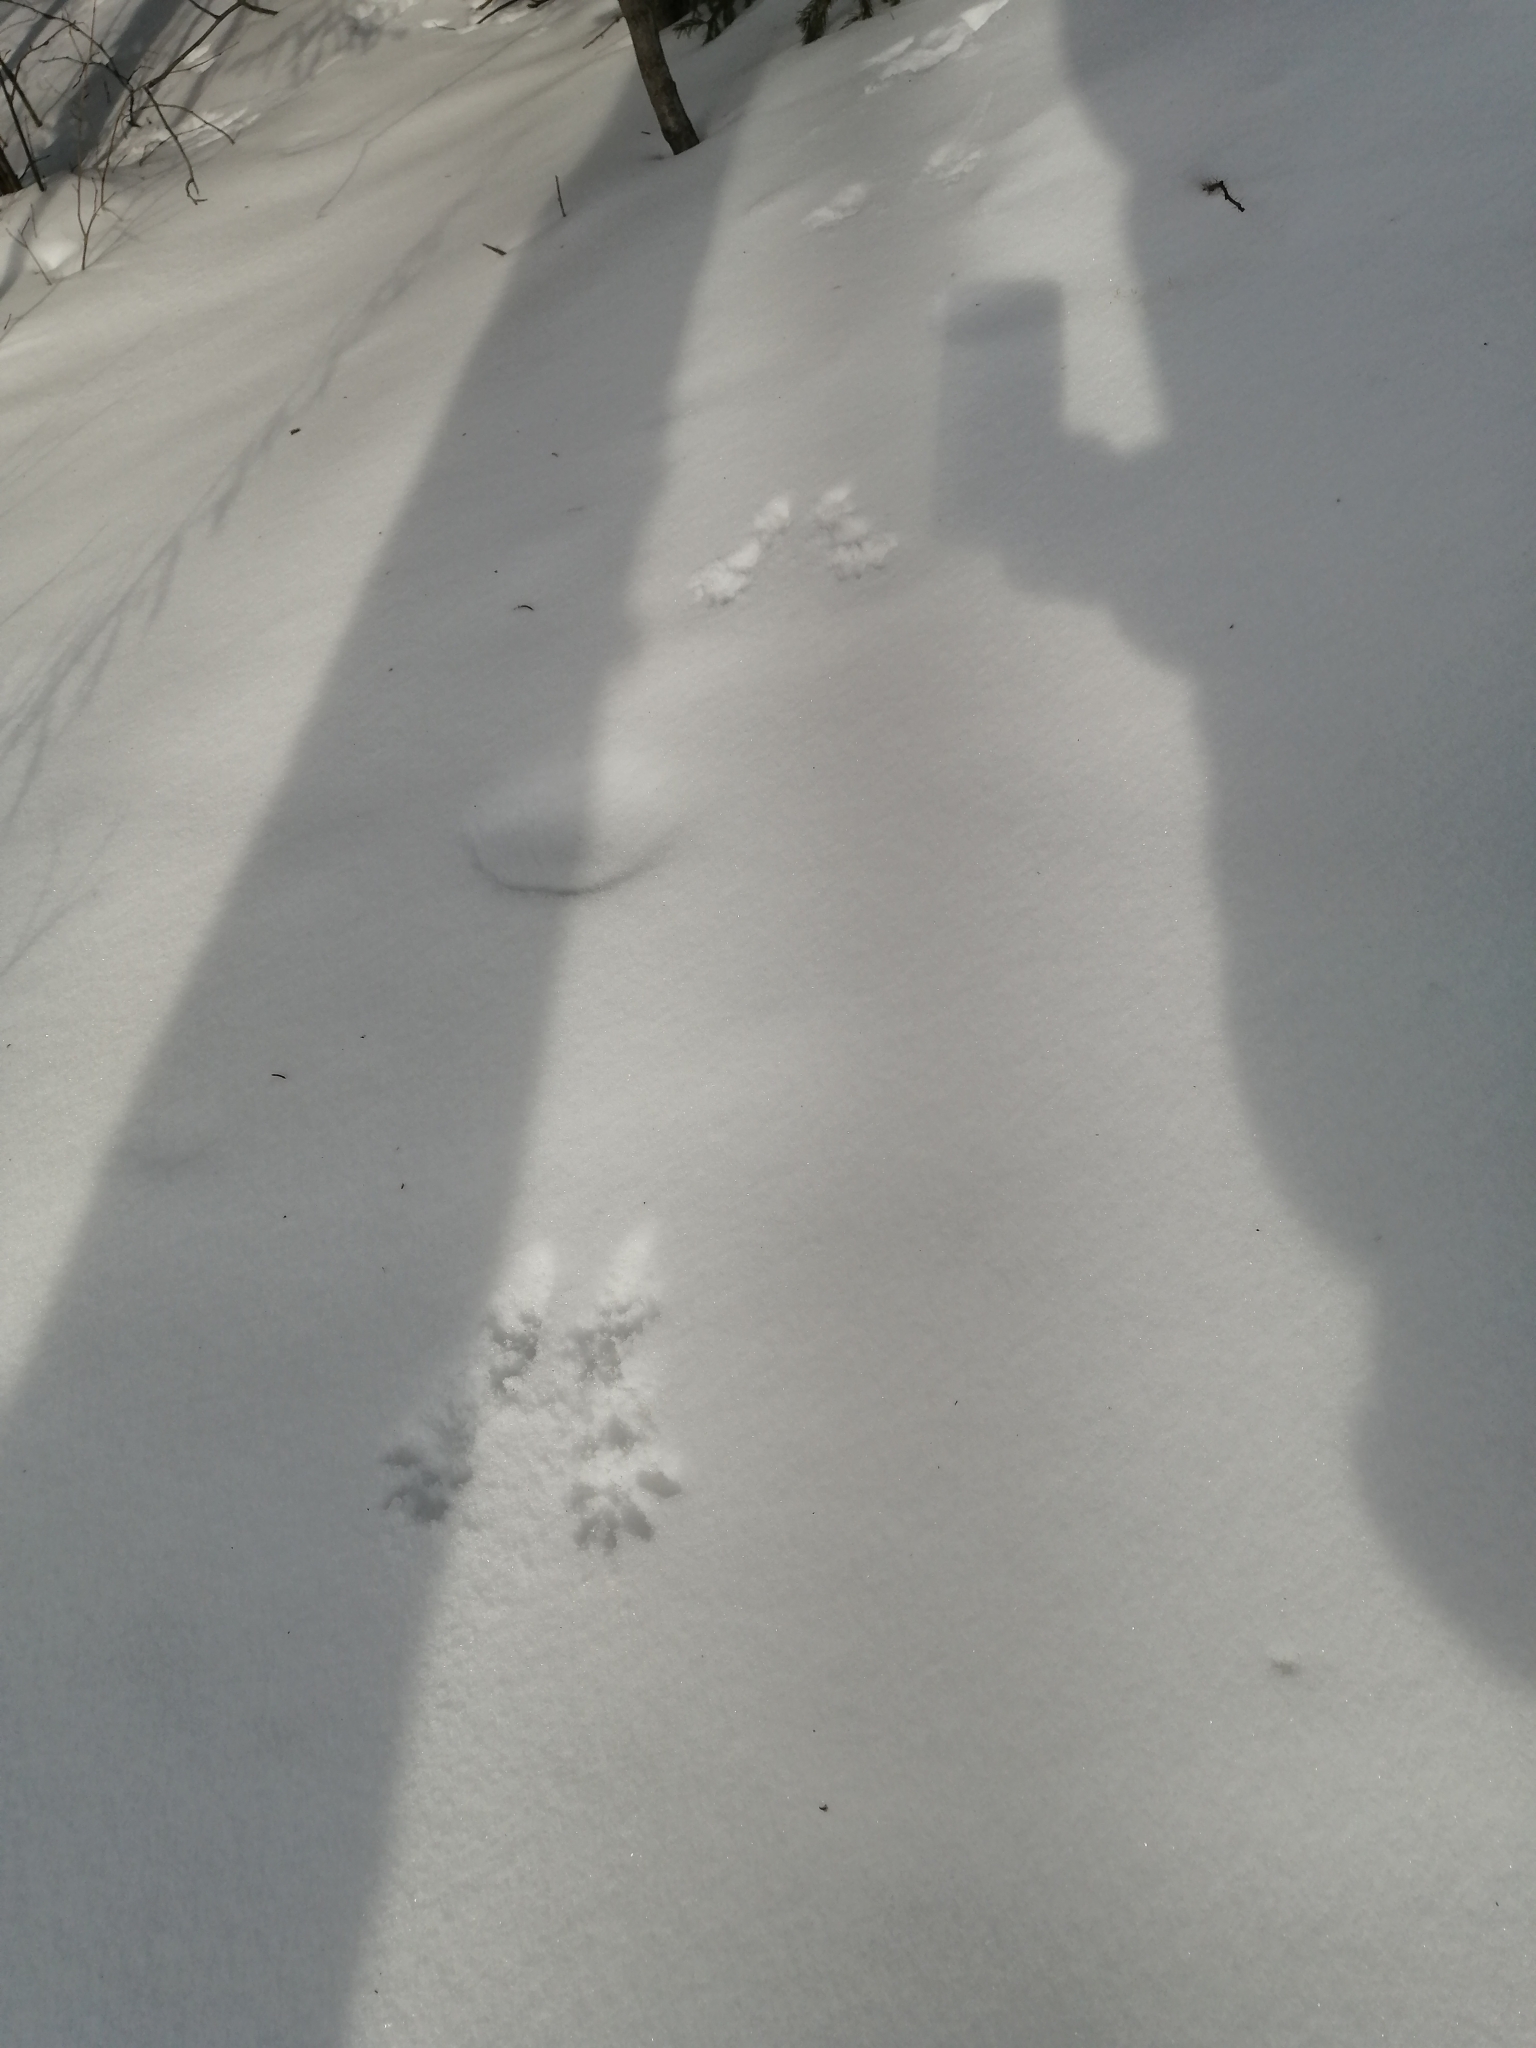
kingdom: Animalia
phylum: Chordata
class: Mammalia
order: Rodentia
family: Sciuridae
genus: Sciurus
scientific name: Sciurus vulgaris
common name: Eurasian red squirrel
